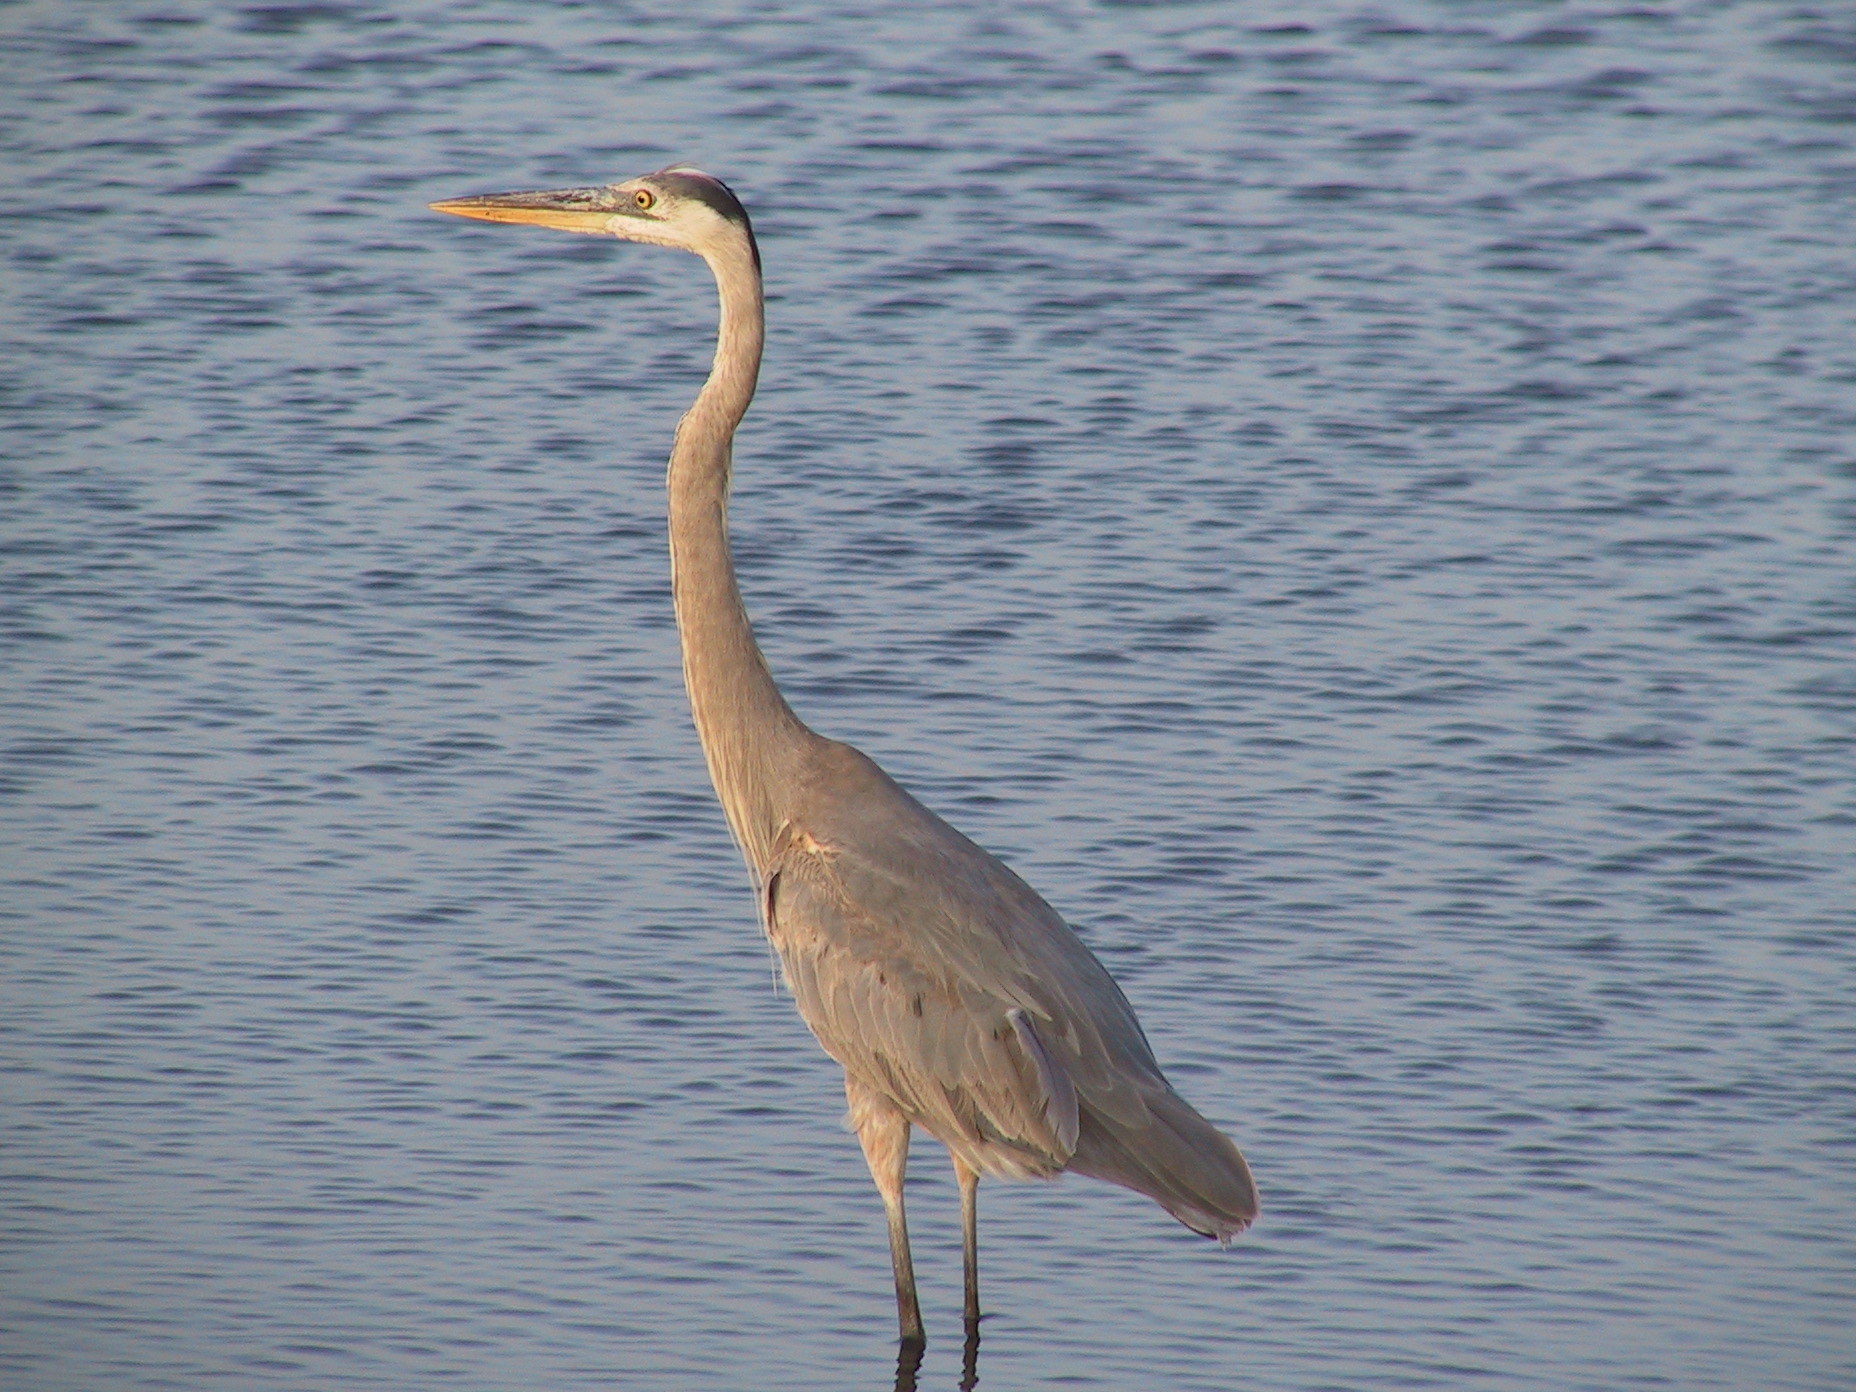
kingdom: Animalia
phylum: Chordata
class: Aves
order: Pelecaniformes
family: Ardeidae
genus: Ardea
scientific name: Ardea herodias
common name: Great blue heron
